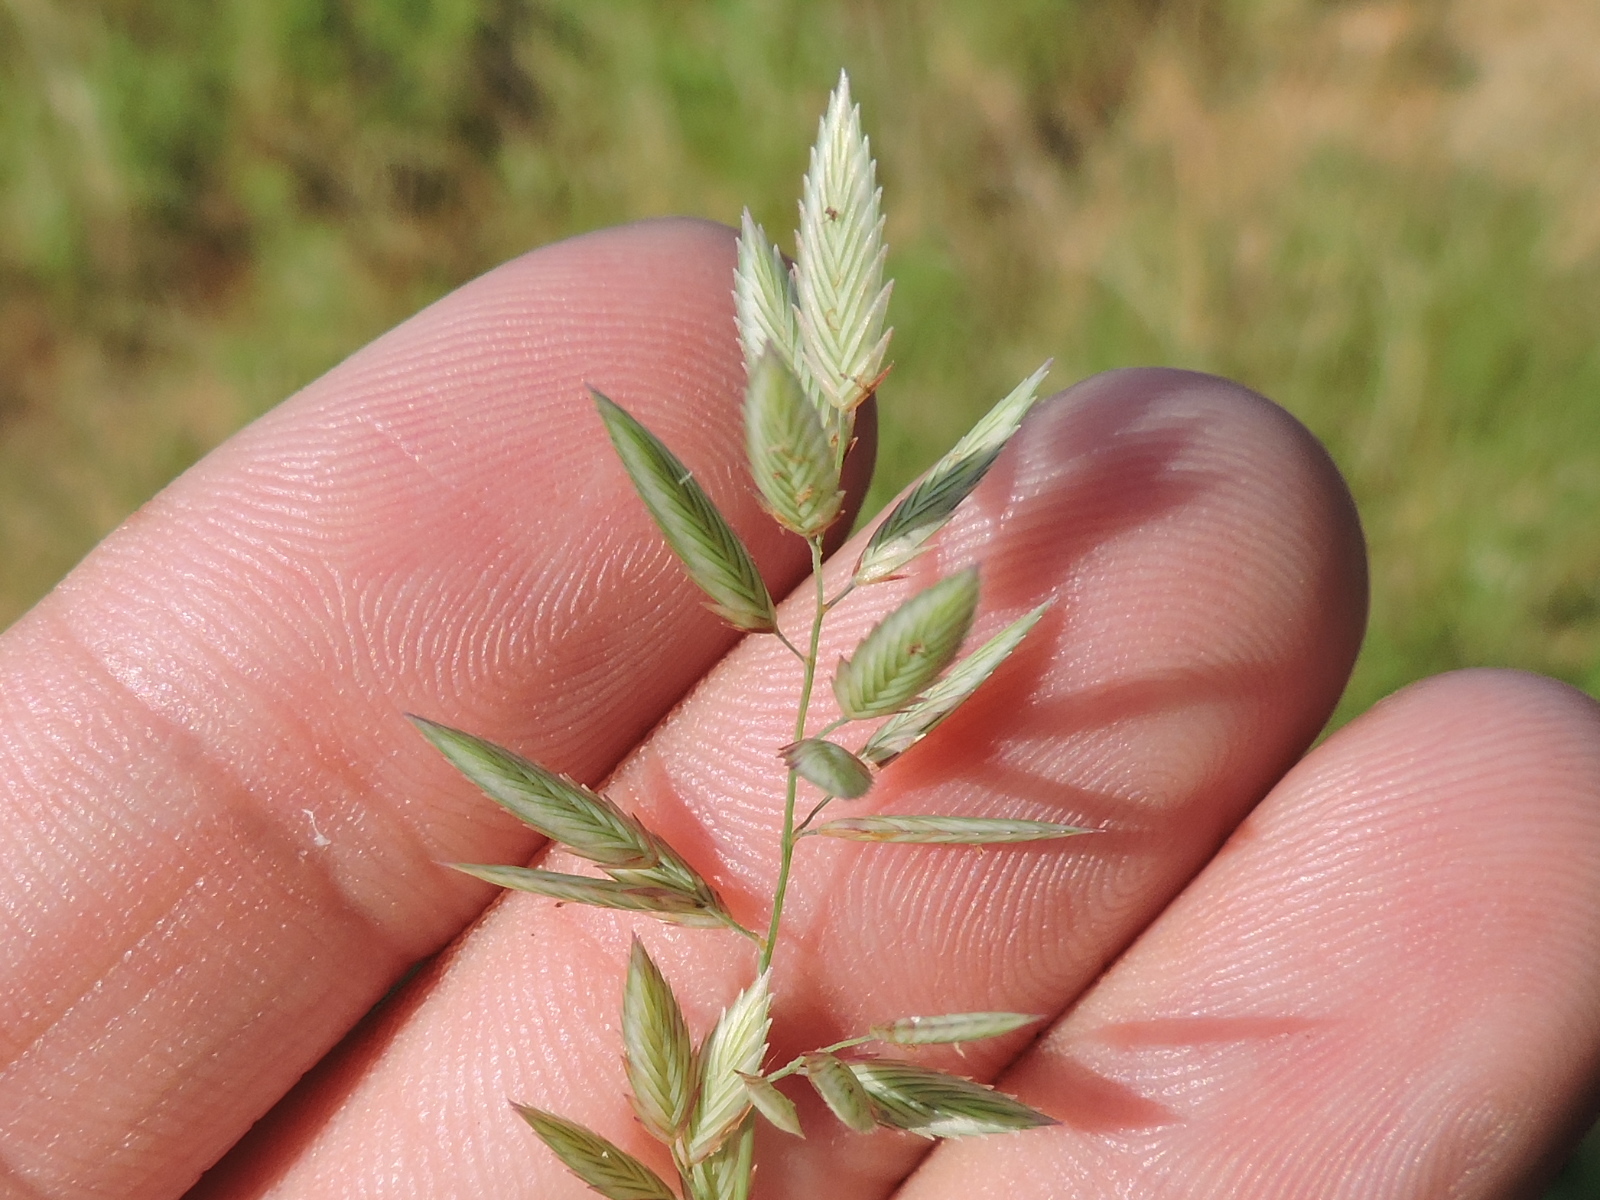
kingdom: Plantae
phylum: Tracheophyta
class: Liliopsida
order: Poales
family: Poaceae
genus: Eragrostis
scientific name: Eragrostis secundiflora
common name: Red love grass
